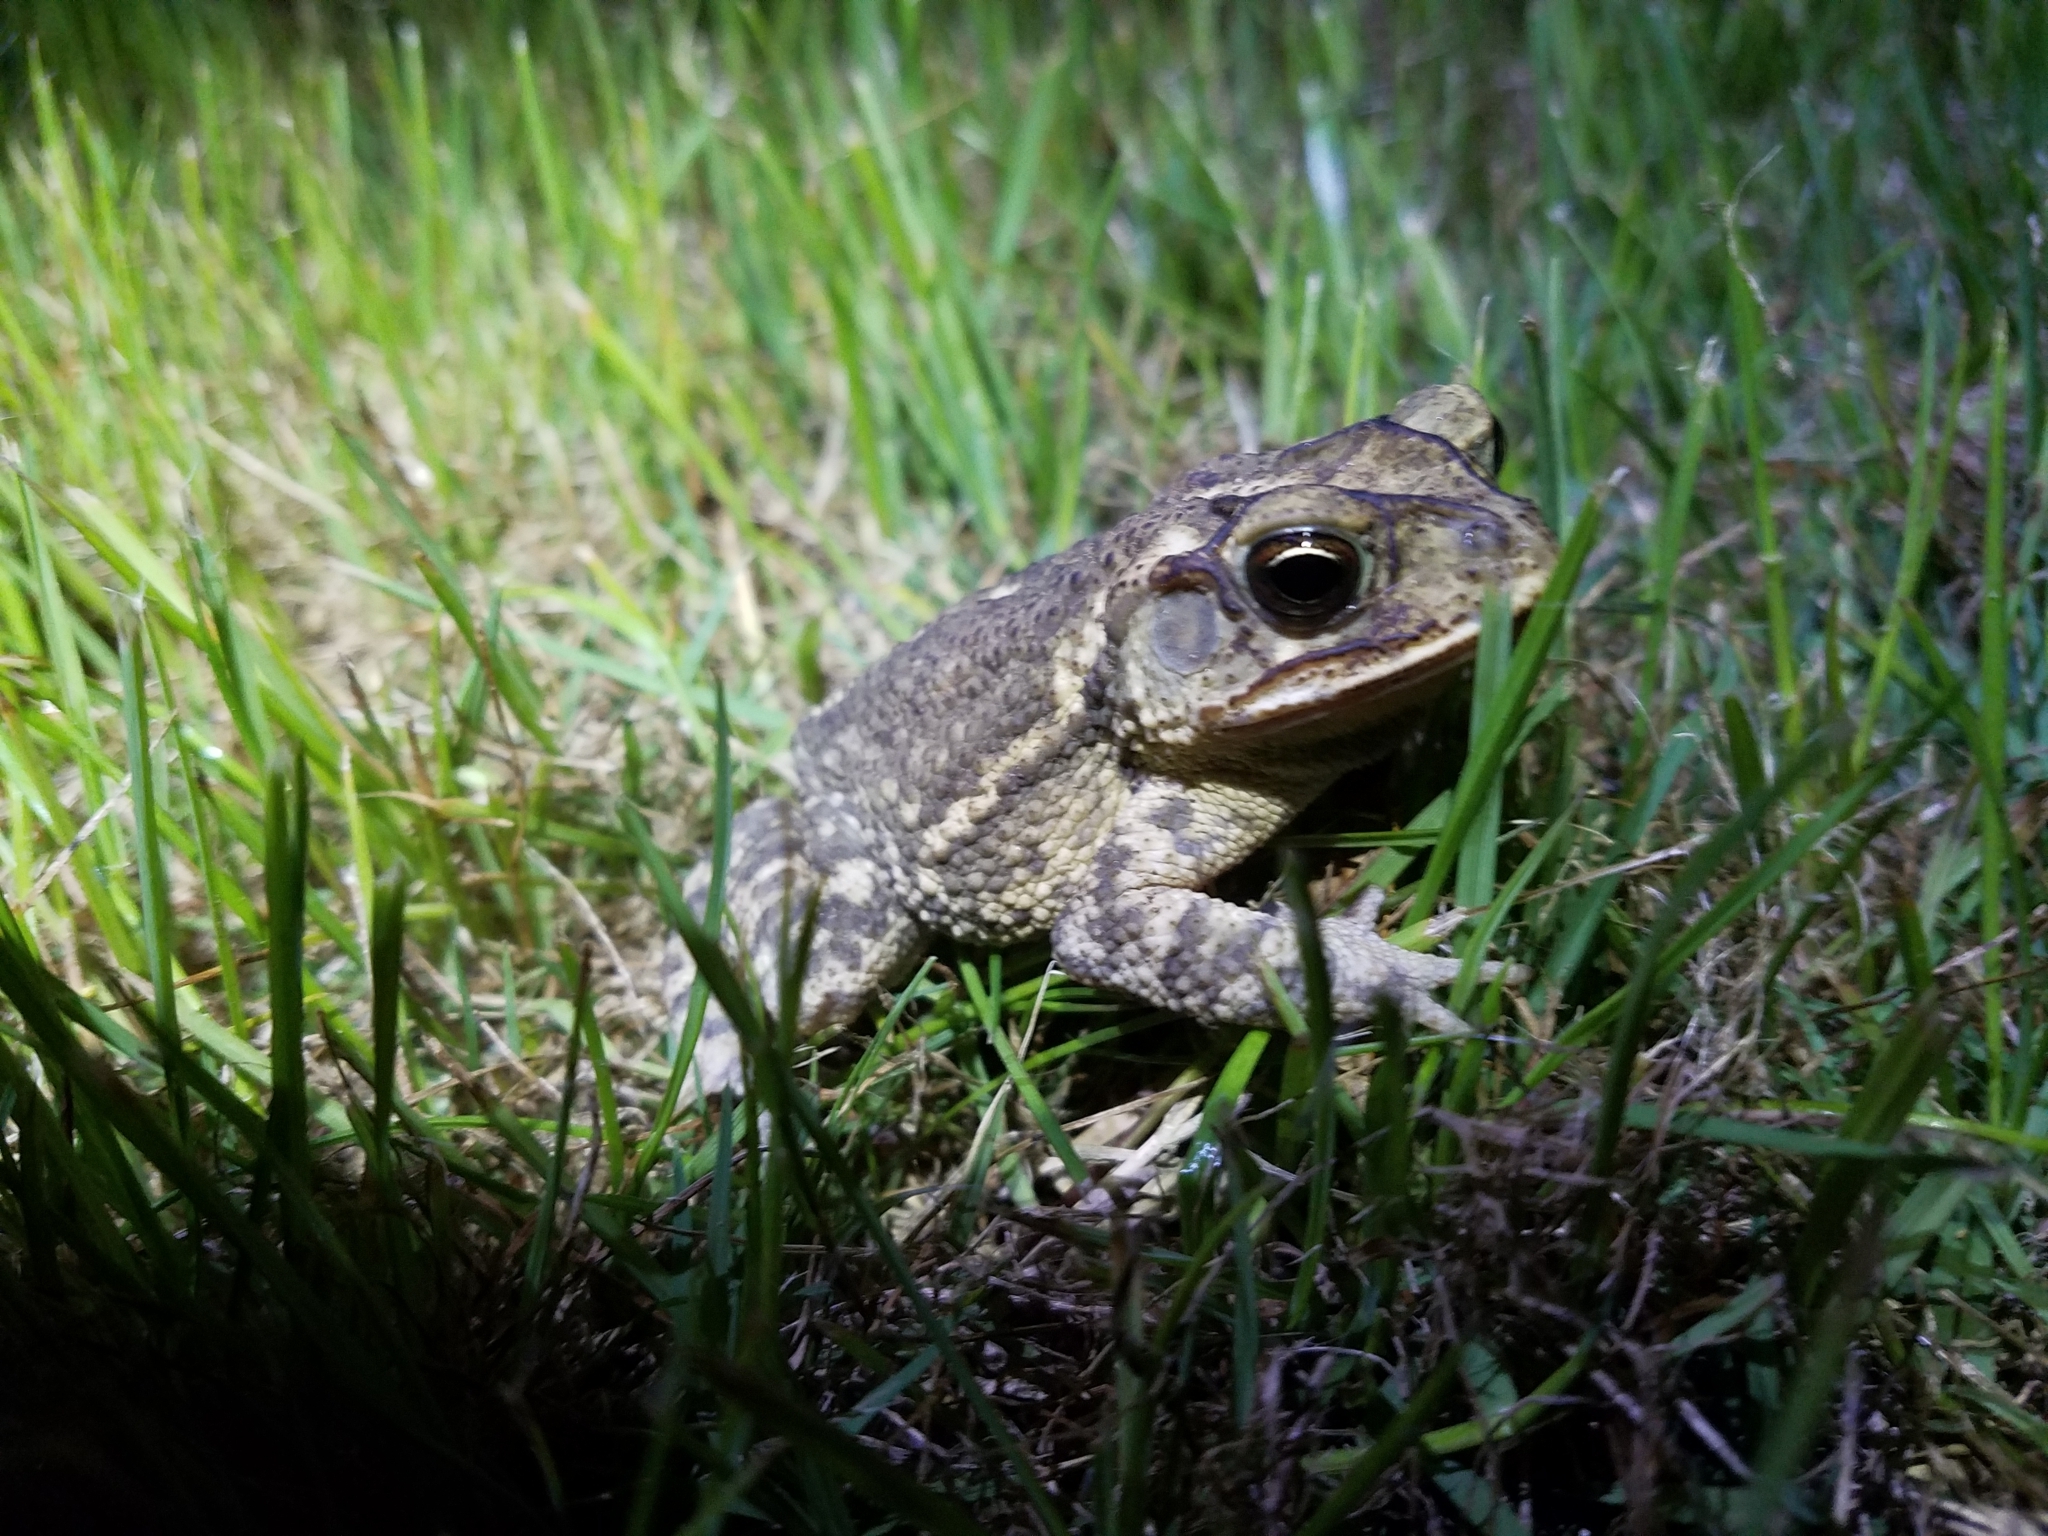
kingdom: Animalia
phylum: Chordata
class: Amphibia
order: Anura
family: Bufonidae
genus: Incilius
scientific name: Incilius nebulifer
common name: Gulf coast toad
